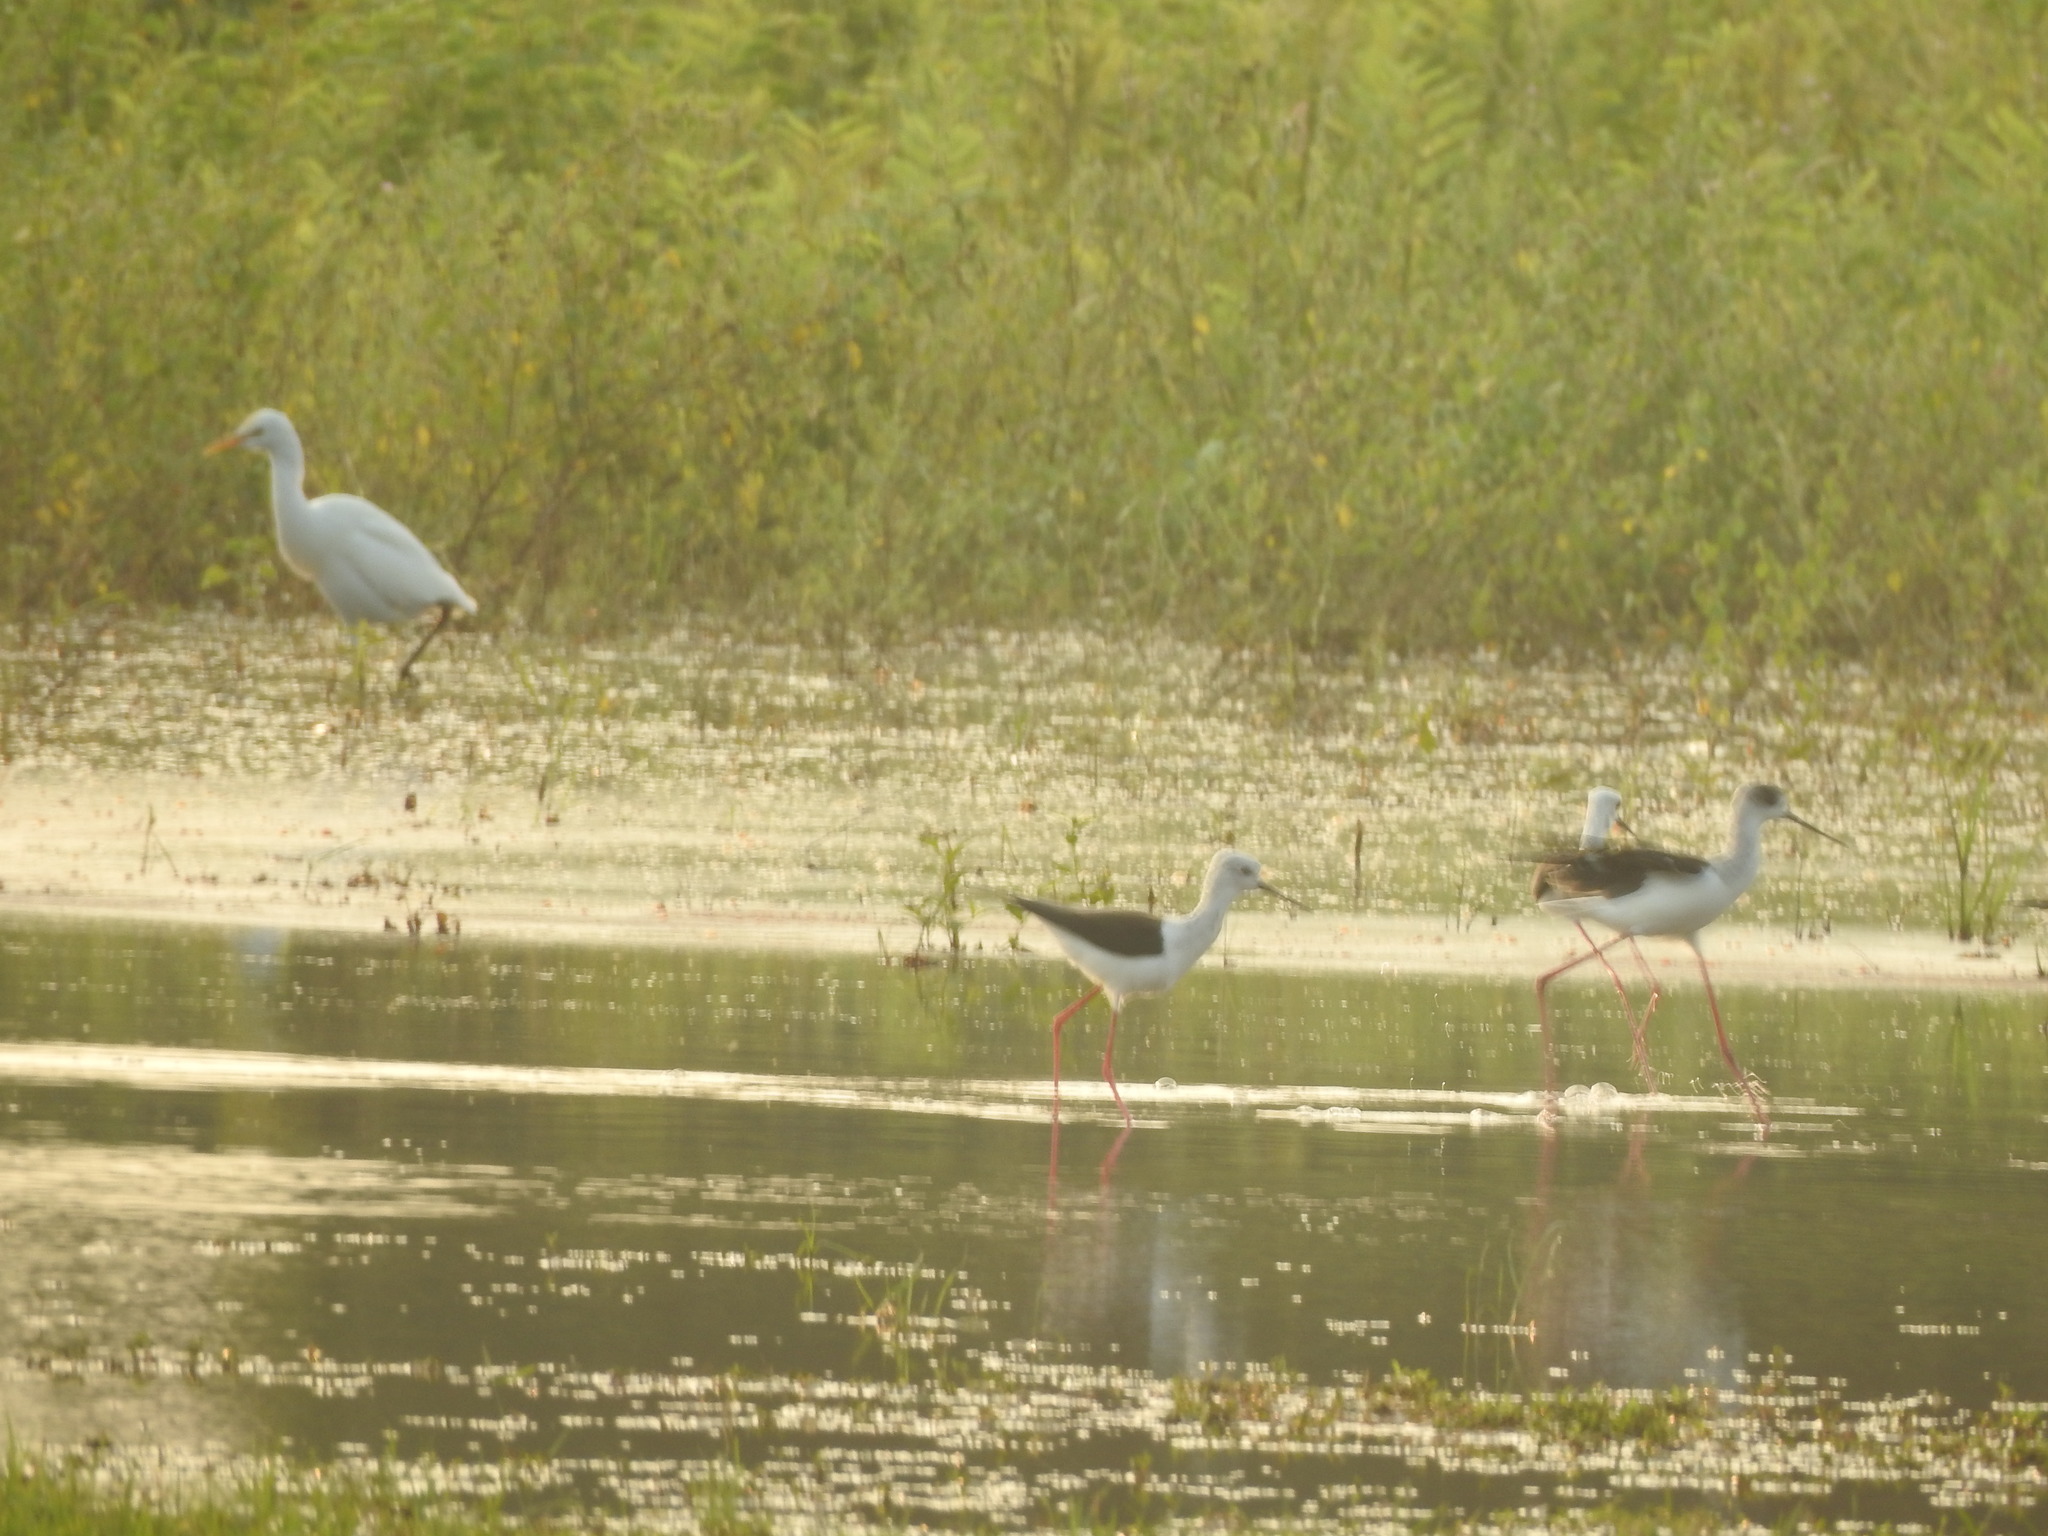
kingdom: Animalia
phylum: Chordata
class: Aves
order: Charadriiformes
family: Recurvirostridae
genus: Himantopus
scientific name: Himantopus himantopus
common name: Black-winged stilt
